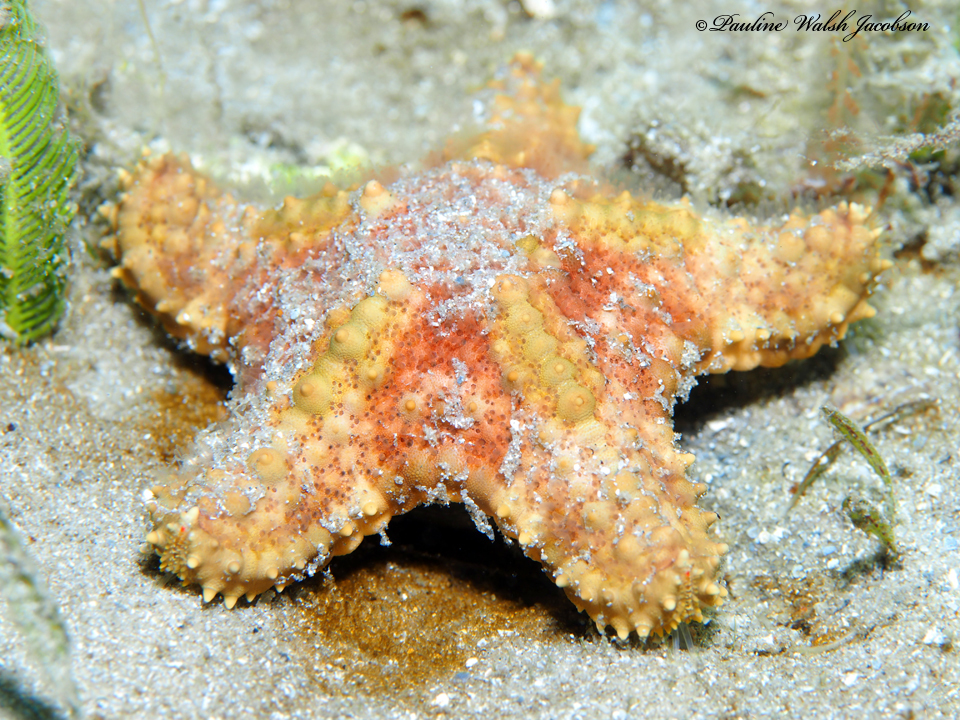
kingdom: Animalia
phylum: Echinodermata
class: Asteroidea
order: Valvatida
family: Oreasteridae
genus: Oreaster
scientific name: Oreaster reticulatus
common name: Cushion sea star
